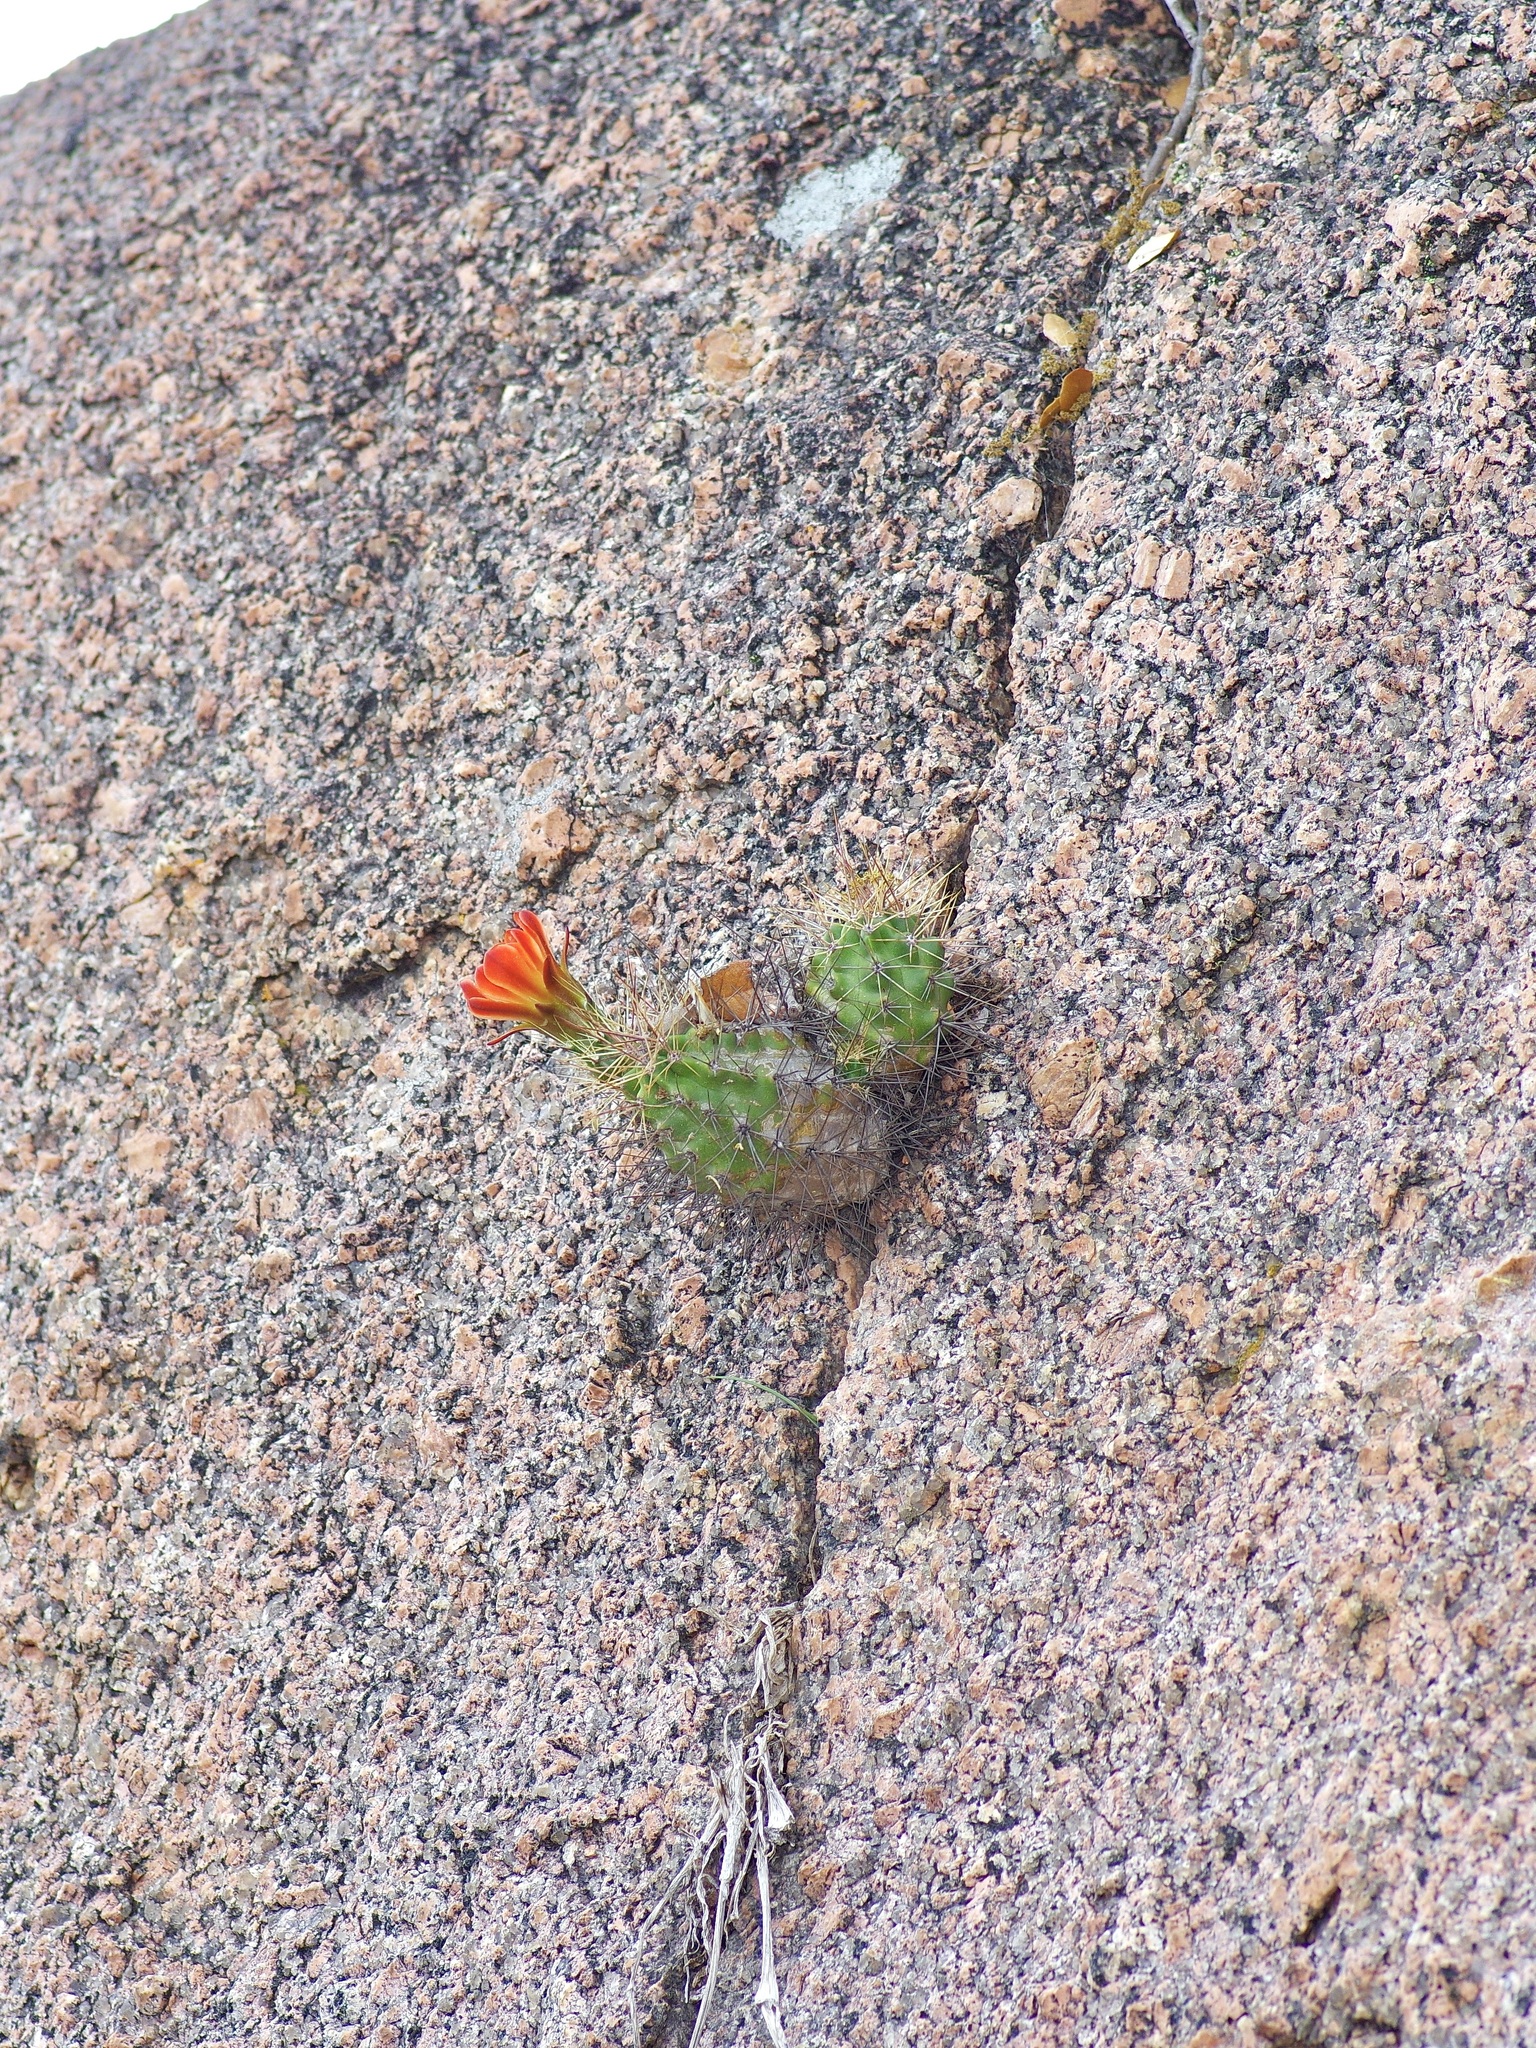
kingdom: Plantae
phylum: Tracheophyta
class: Magnoliopsida
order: Caryophyllales
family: Cactaceae
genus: Echinocereus
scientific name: Echinocereus coccineus
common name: Scarlet hedgehog cactus
